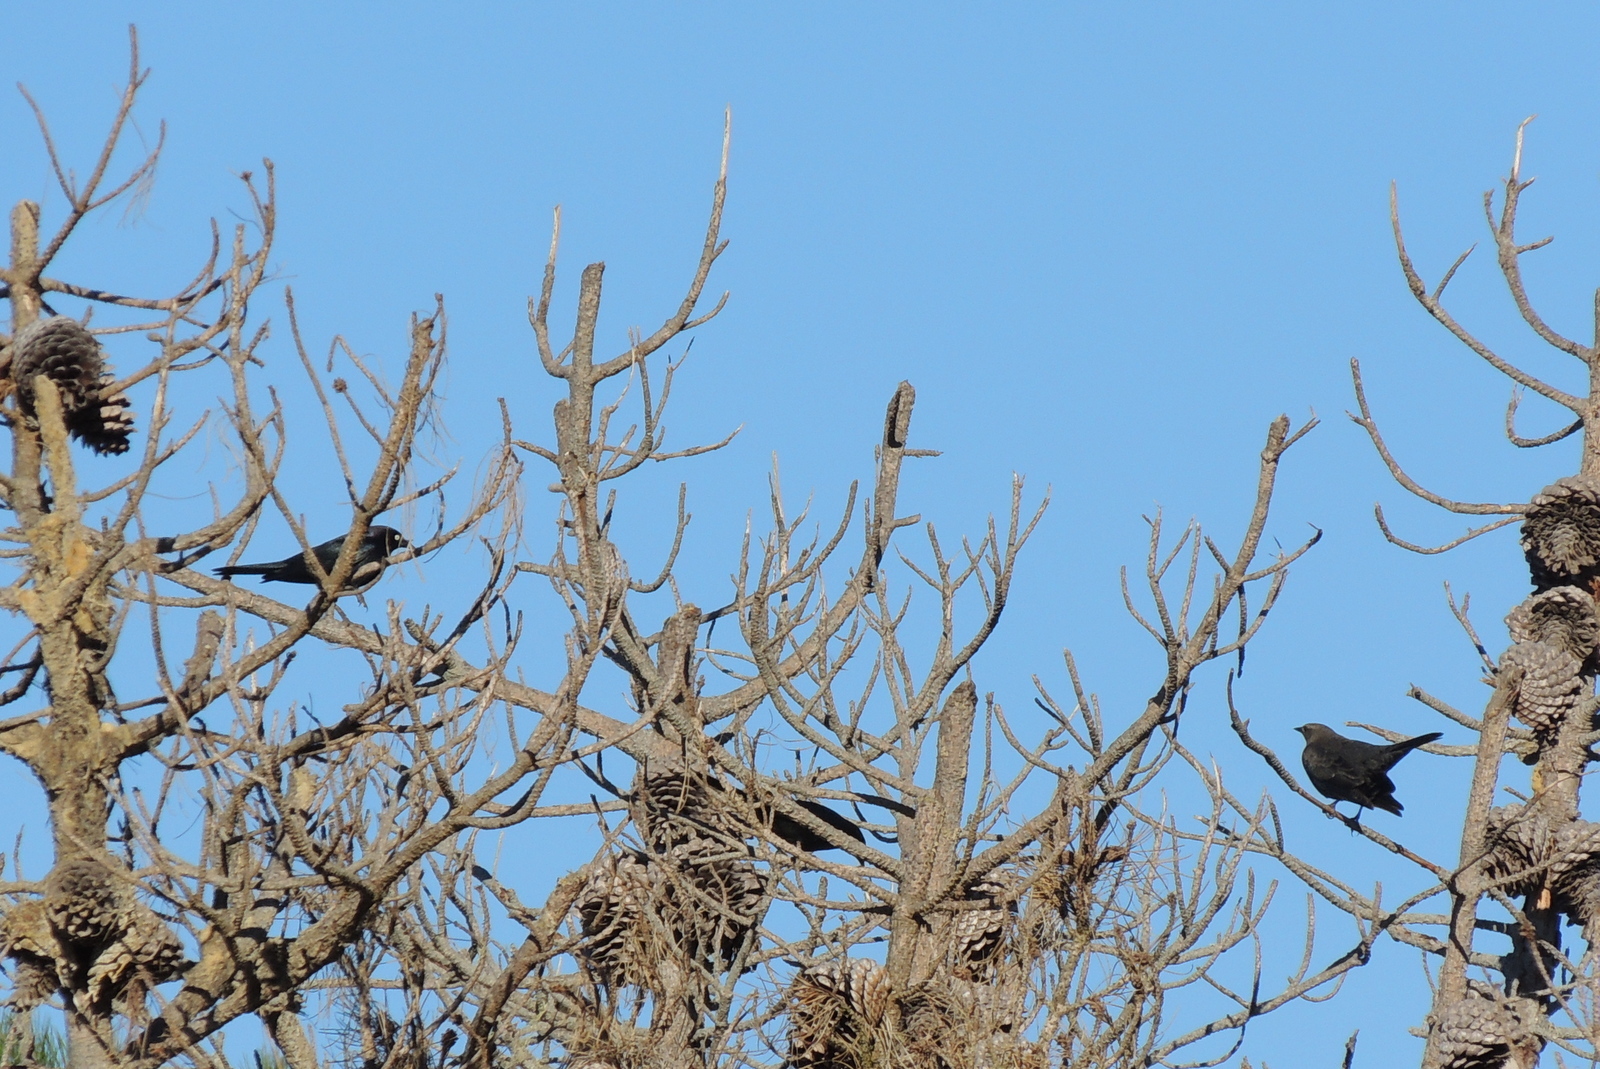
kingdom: Animalia
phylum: Chordata
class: Aves
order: Passeriformes
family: Icteridae
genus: Euphagus
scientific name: Euphagus cyanocephalus
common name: Brewer's blackbird
